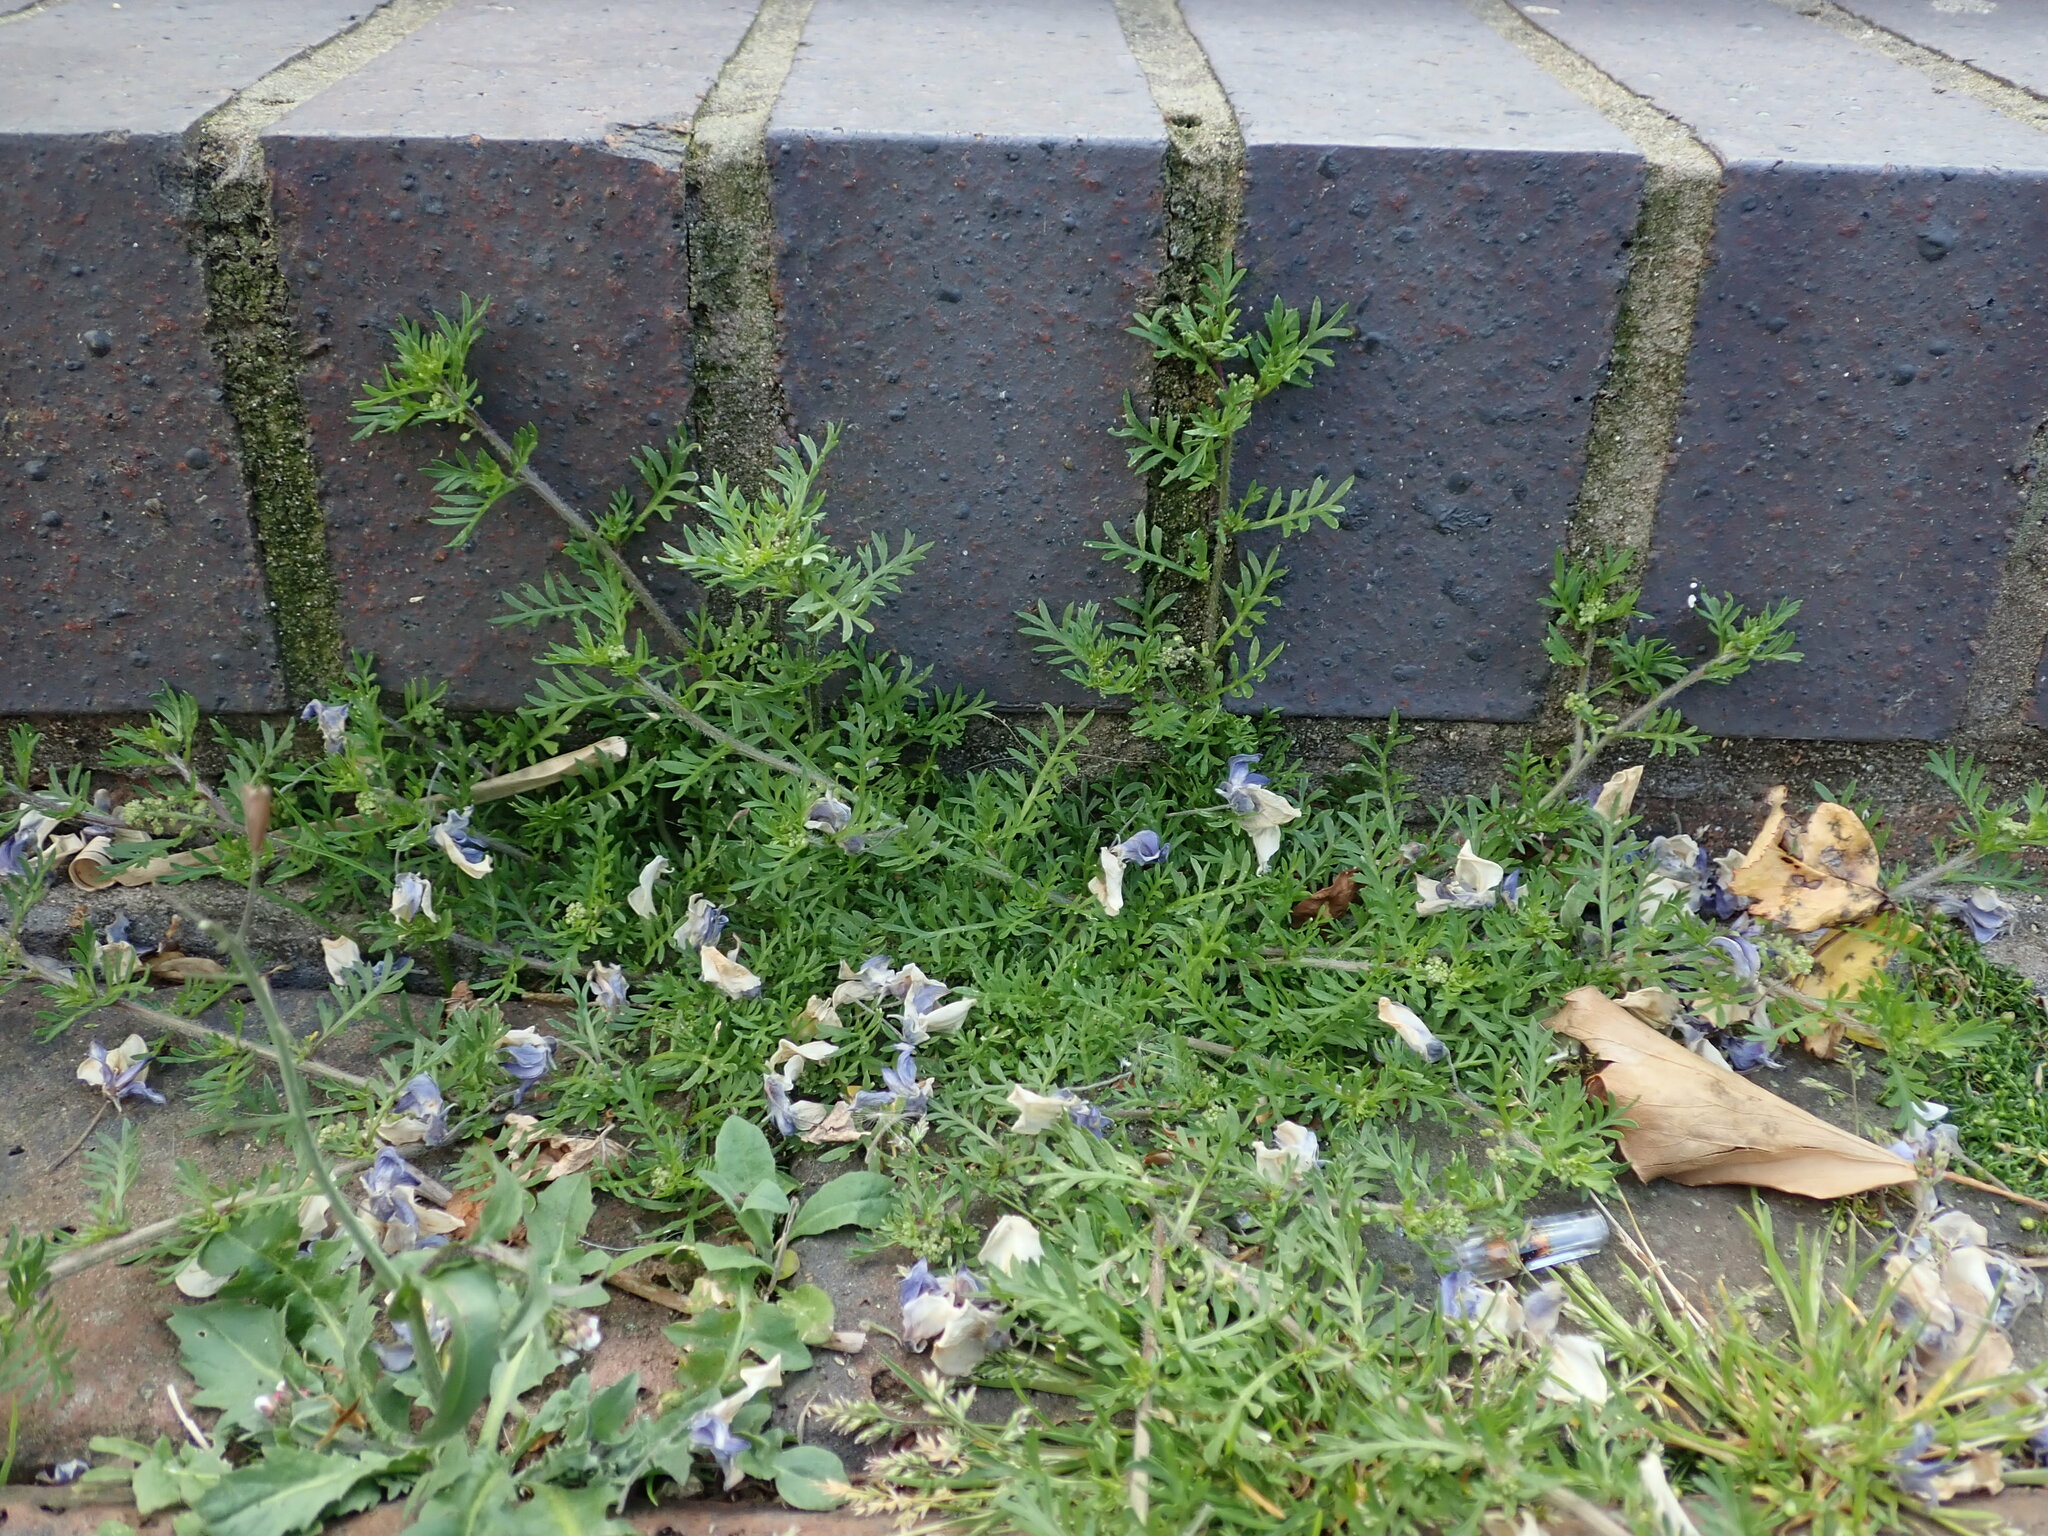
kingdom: Plantae
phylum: Tracheophyta
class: Magnoliopsida
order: Brassicales
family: Brassicaceae
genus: Lepidium
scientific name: Lepidium didymum
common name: Lesser swinecress
